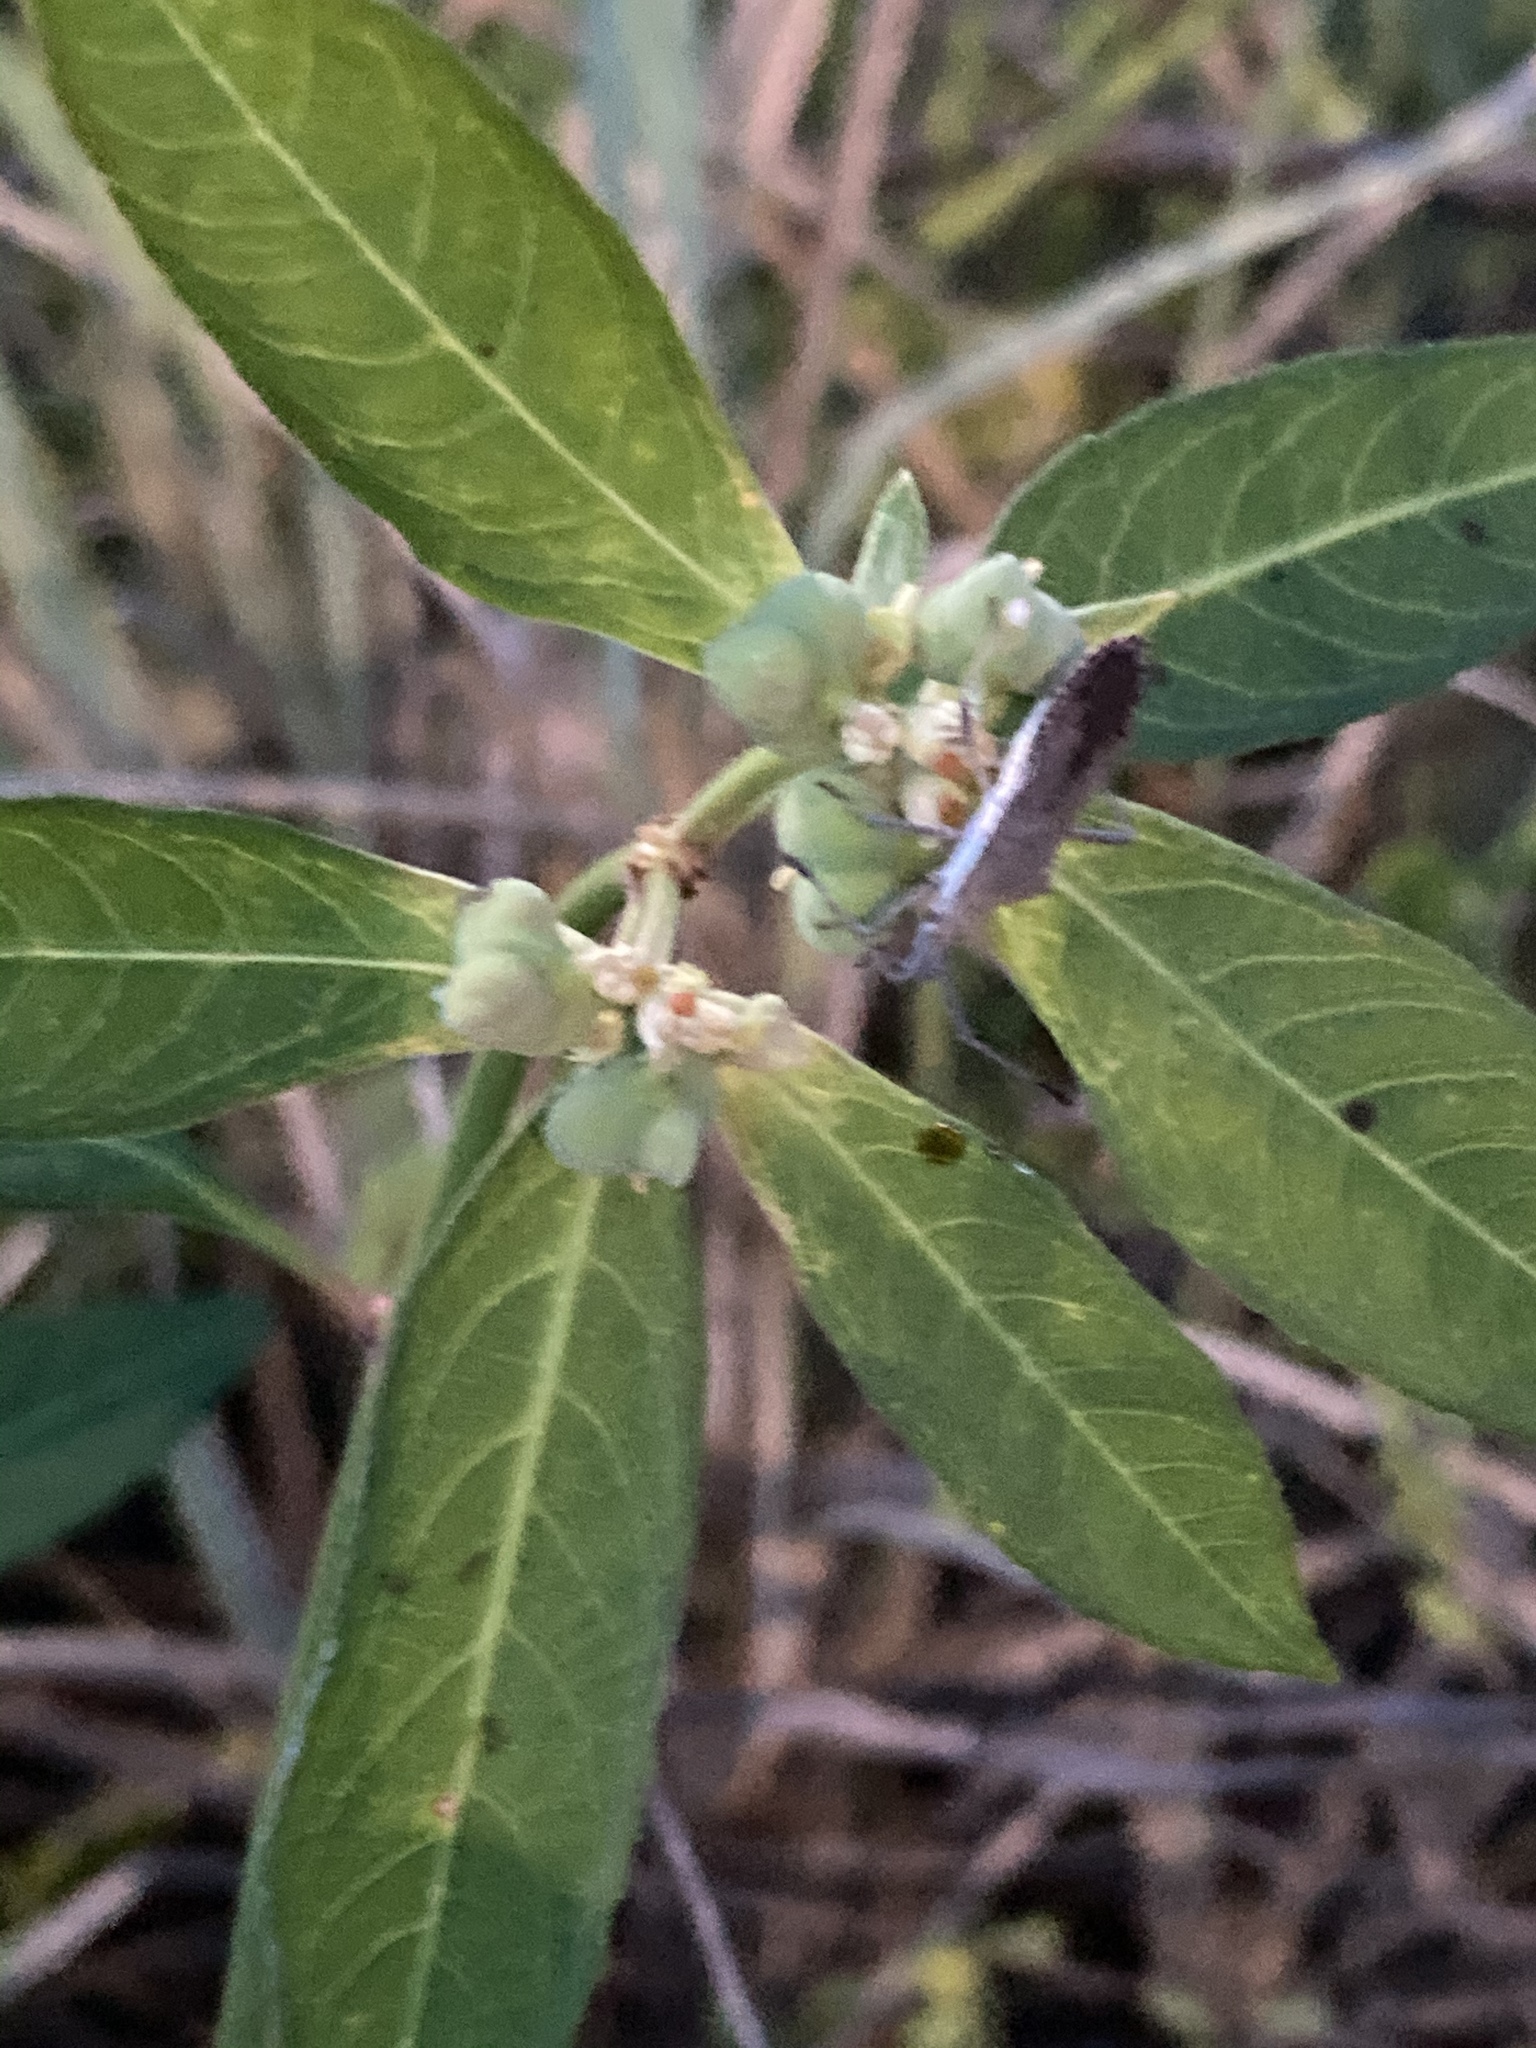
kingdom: Animalia
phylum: Arthropoda
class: Insecta
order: Hemiptera
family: Coreidae
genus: Chariesterus
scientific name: Chariesterus antennator
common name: Flat horned coreid
